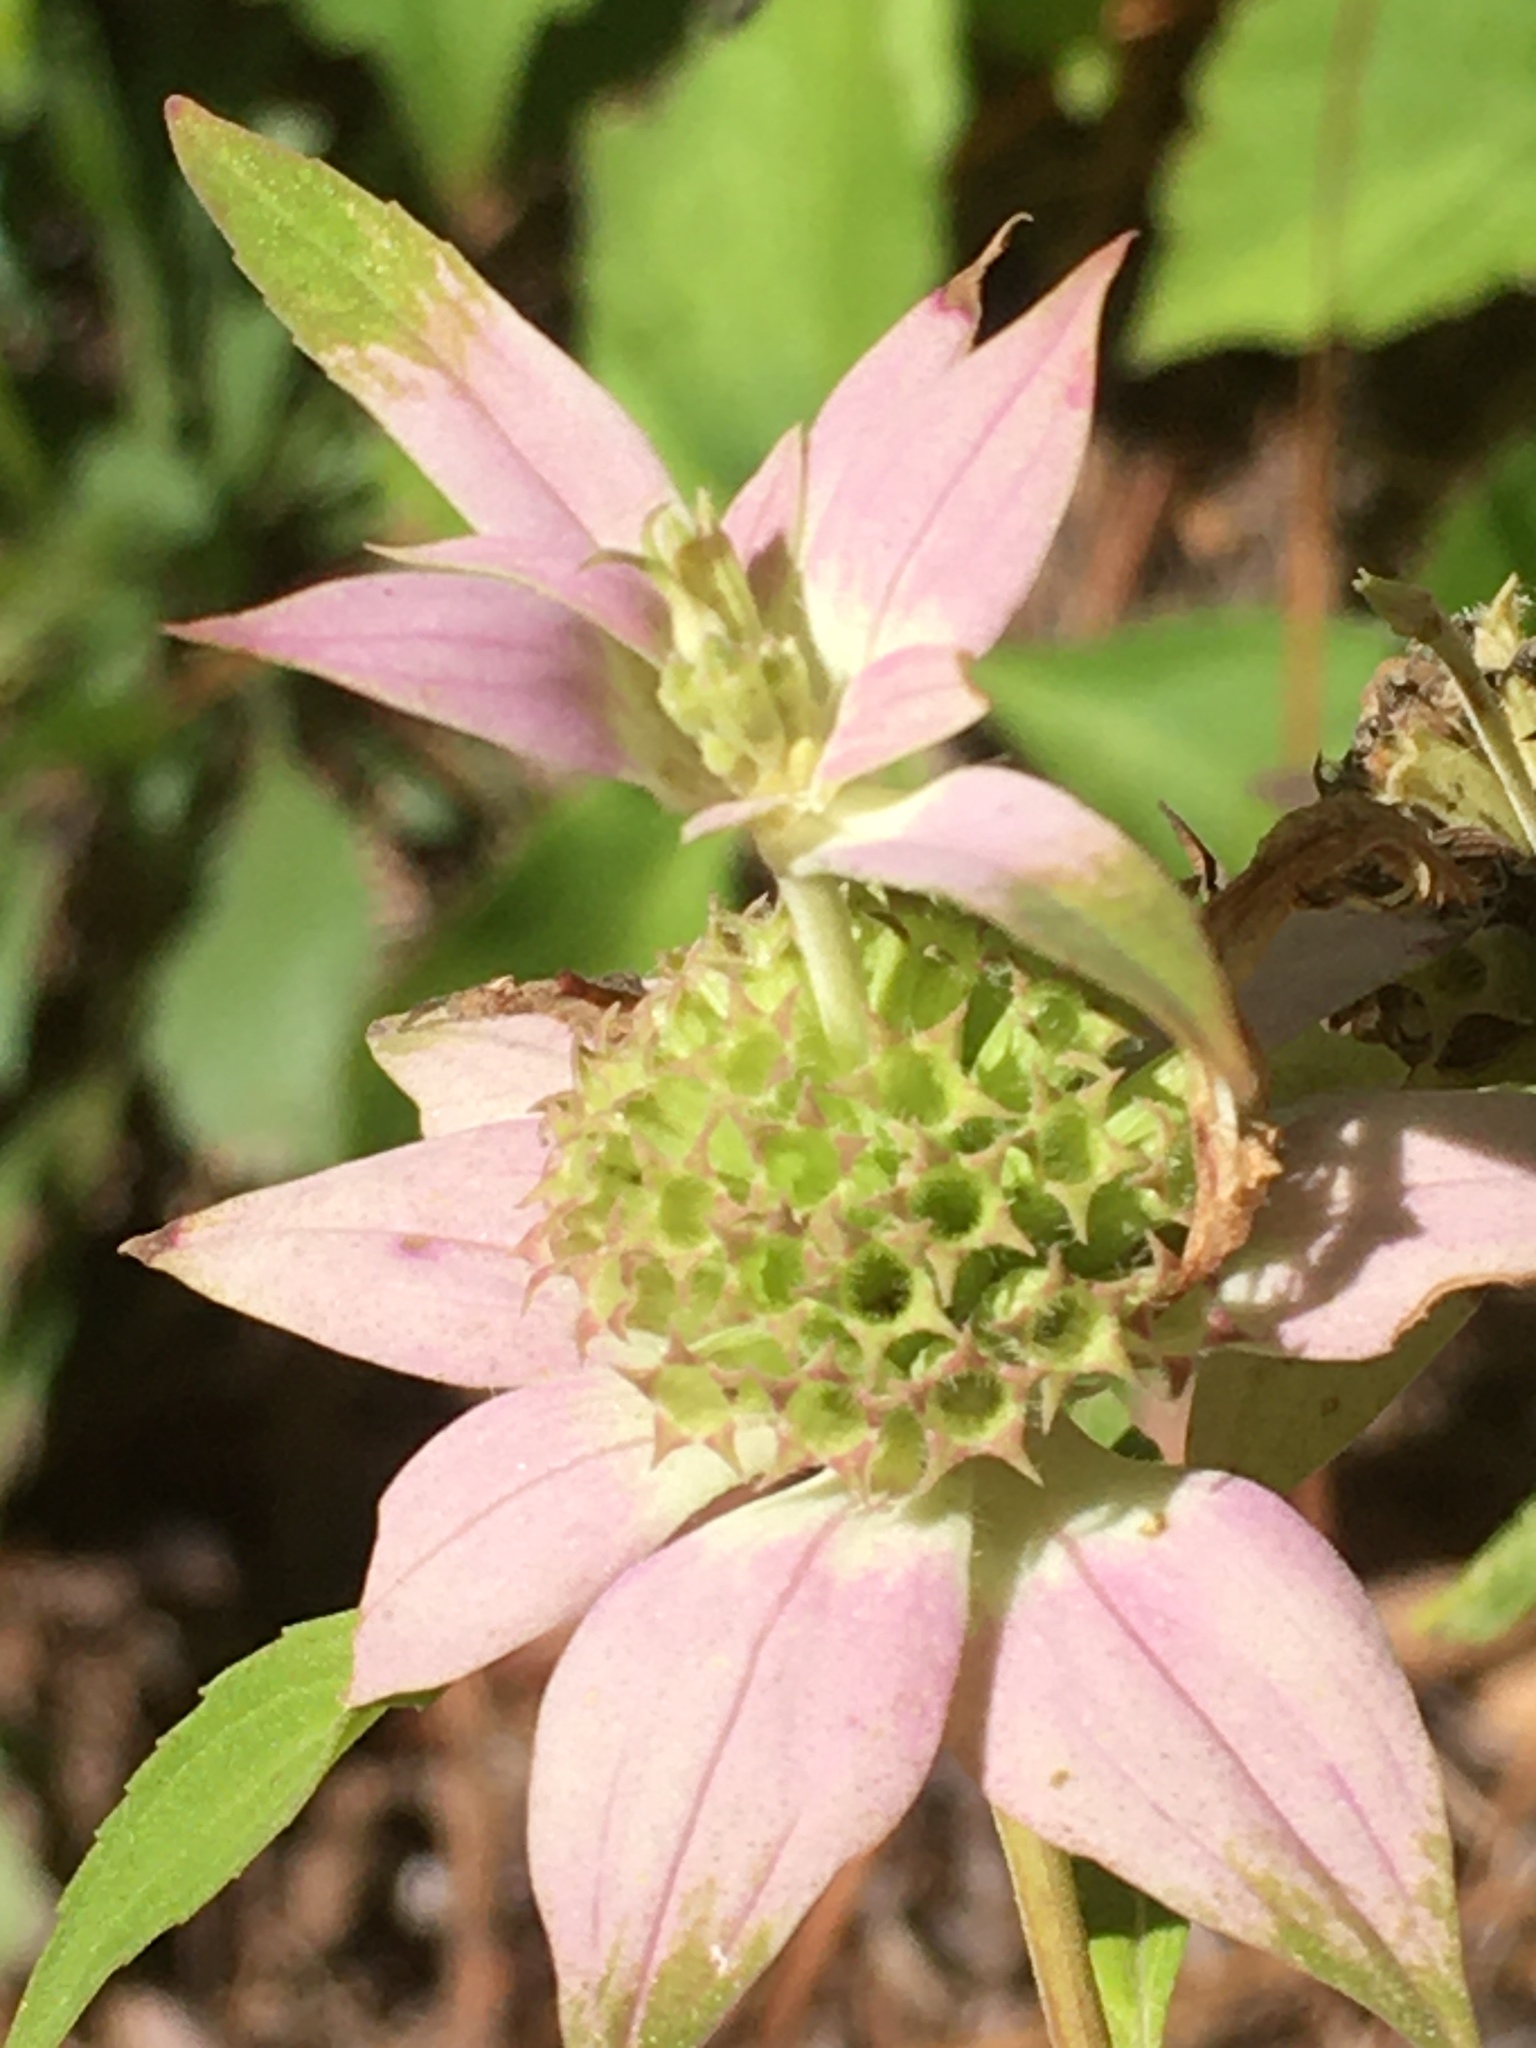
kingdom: Plantae
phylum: Tracheophyta
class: Magnoliopsida
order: Lamiales
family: Lamiaceae
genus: Monarda
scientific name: Monarda punctata
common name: Dotted monarda
